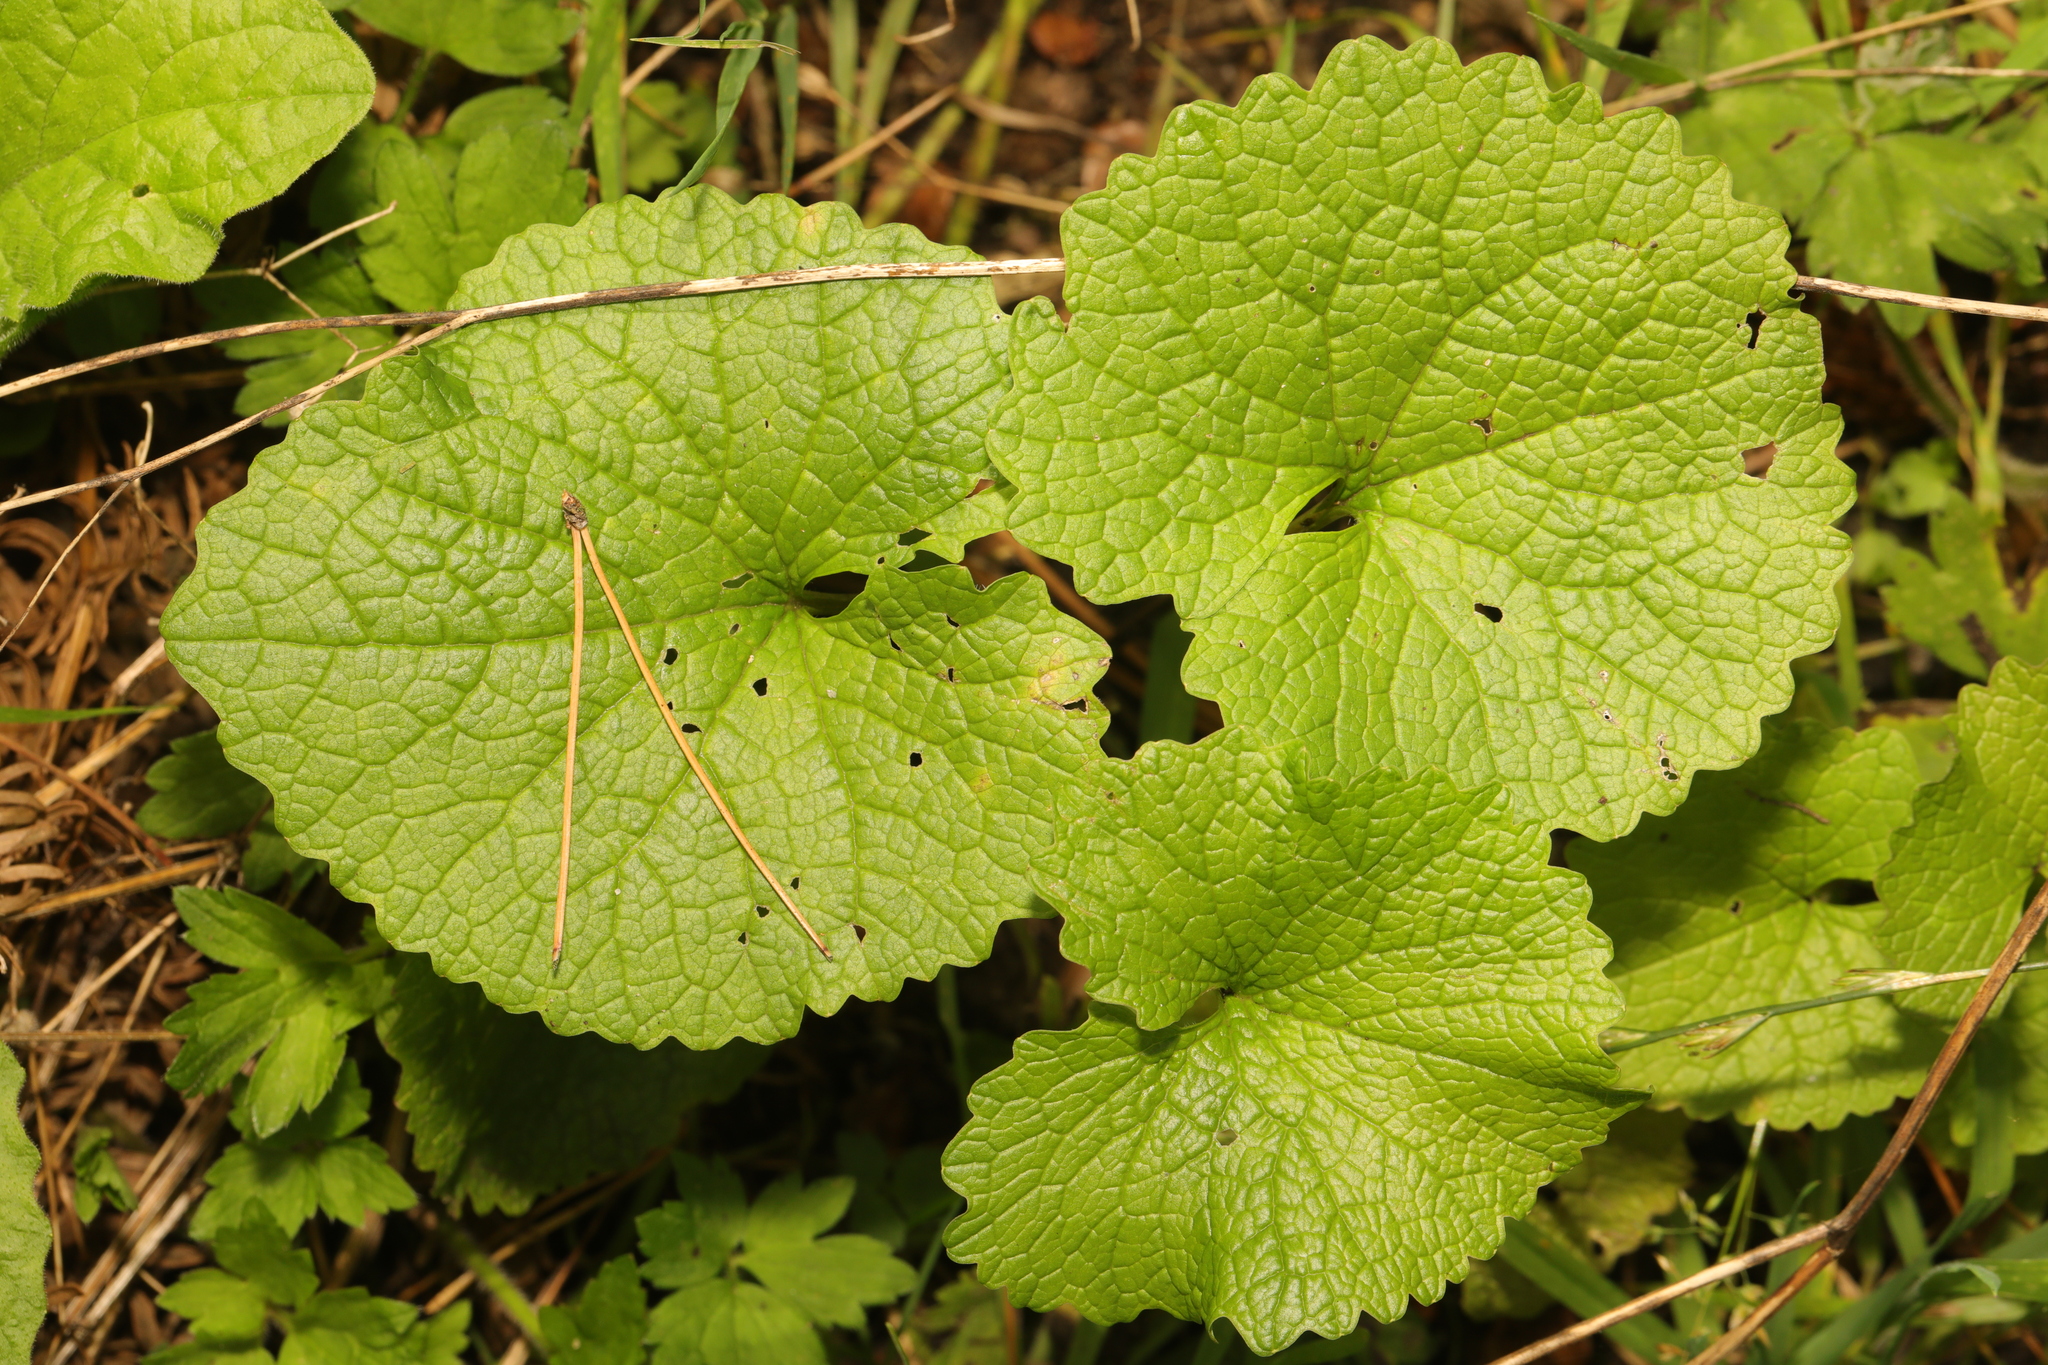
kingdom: Plantae
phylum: Tracheophyta
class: Magnoliopsida
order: Brassicales
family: Brassicaceae
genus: Alliaria
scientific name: Alliaria petiolata
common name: Garlic mustard
